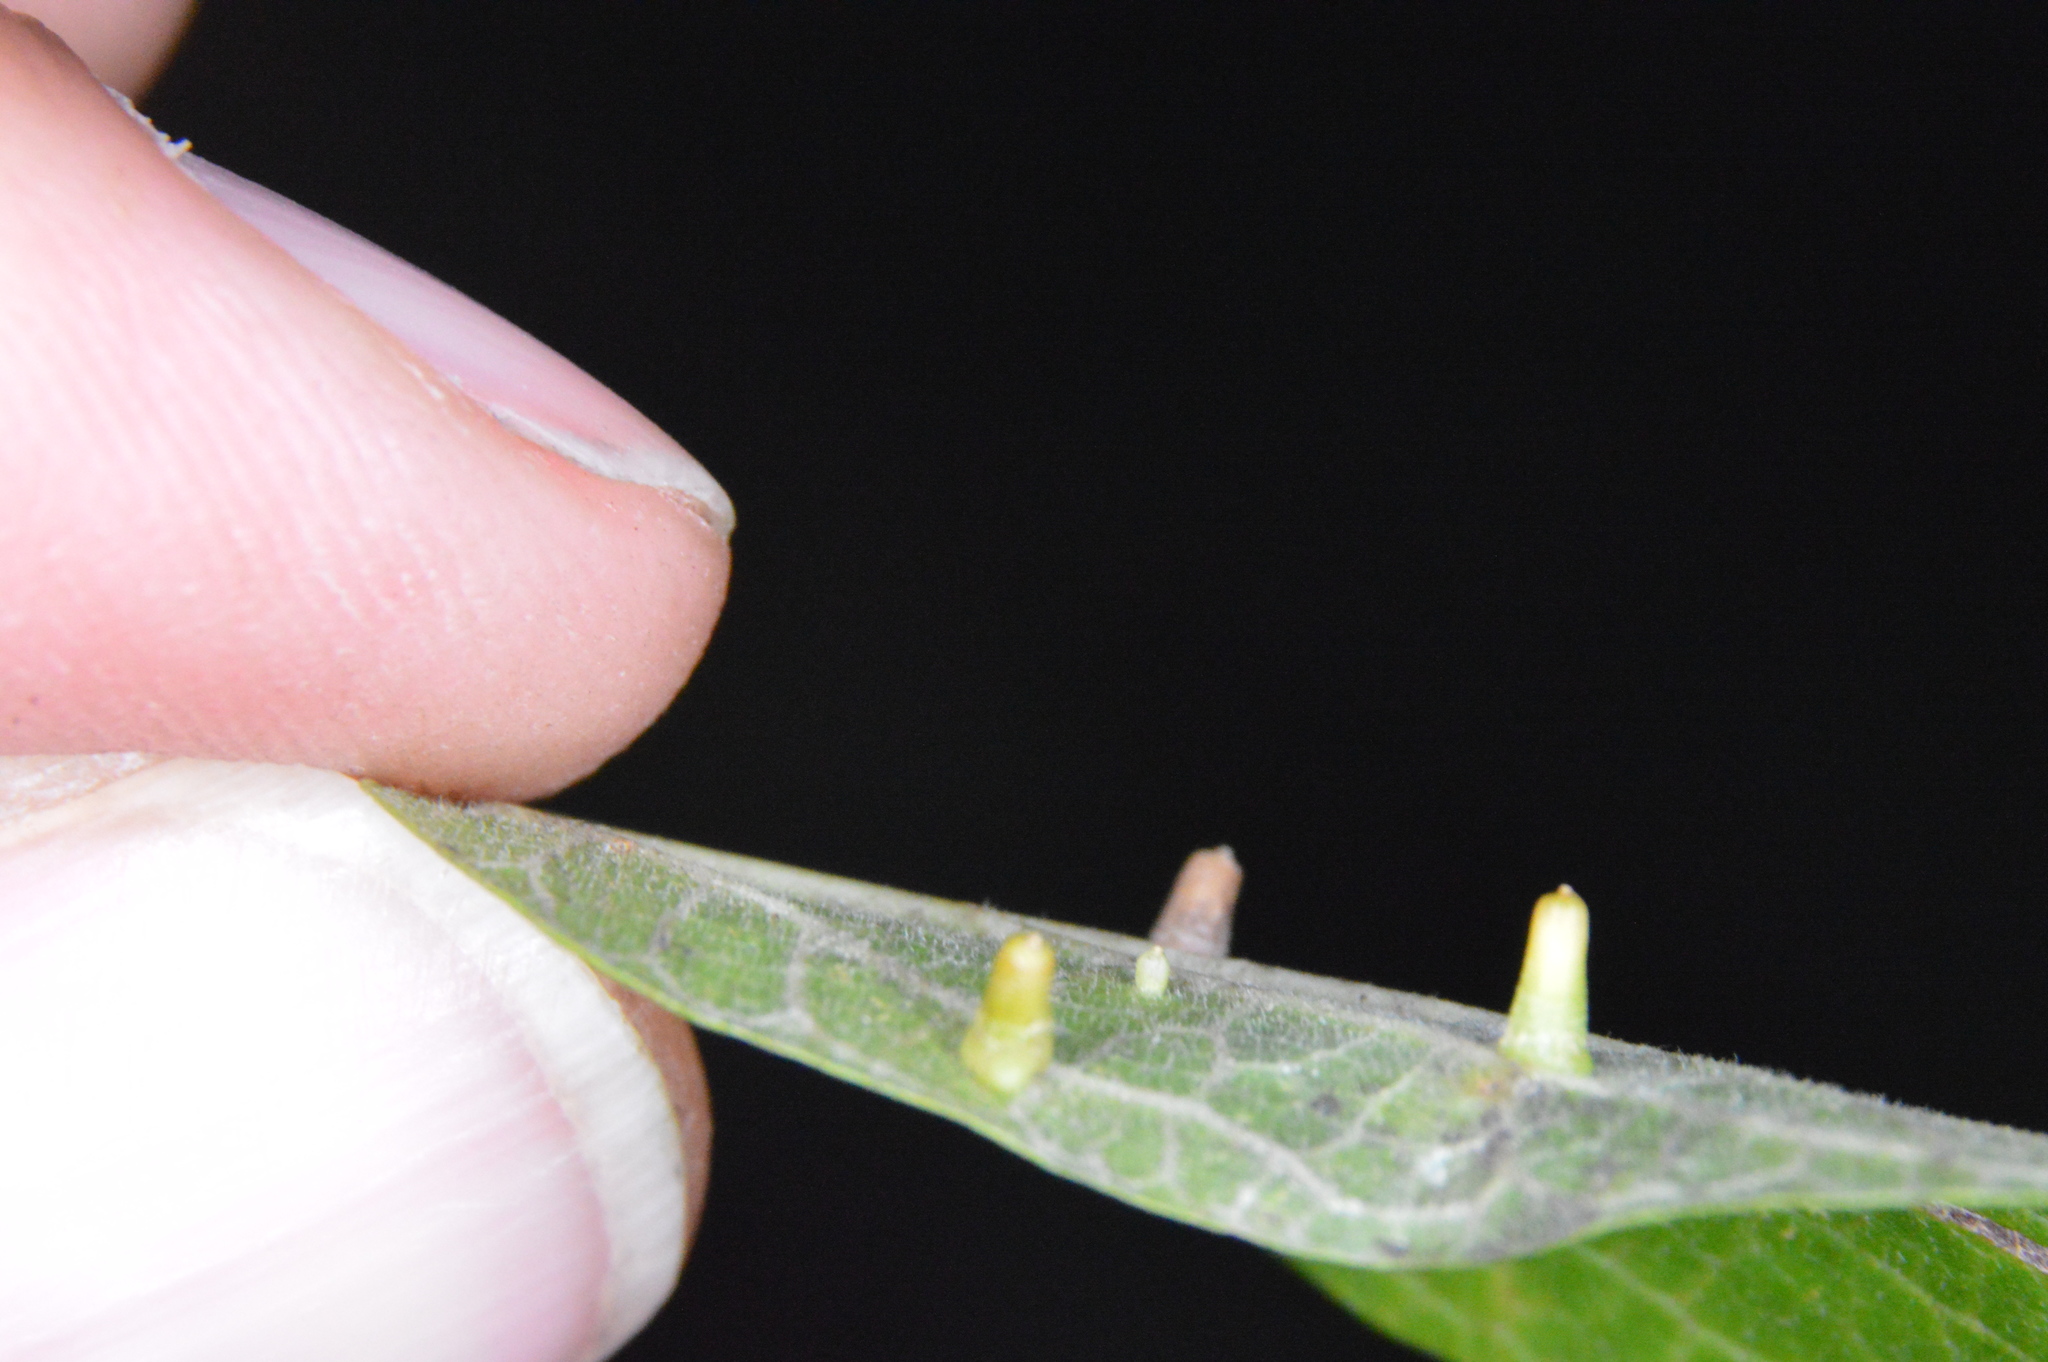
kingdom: Animalia
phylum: Arthropoda
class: Insecta
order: Diptera
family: Cecidomyiidae
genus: Celticecis
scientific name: Celticecis aciculata
